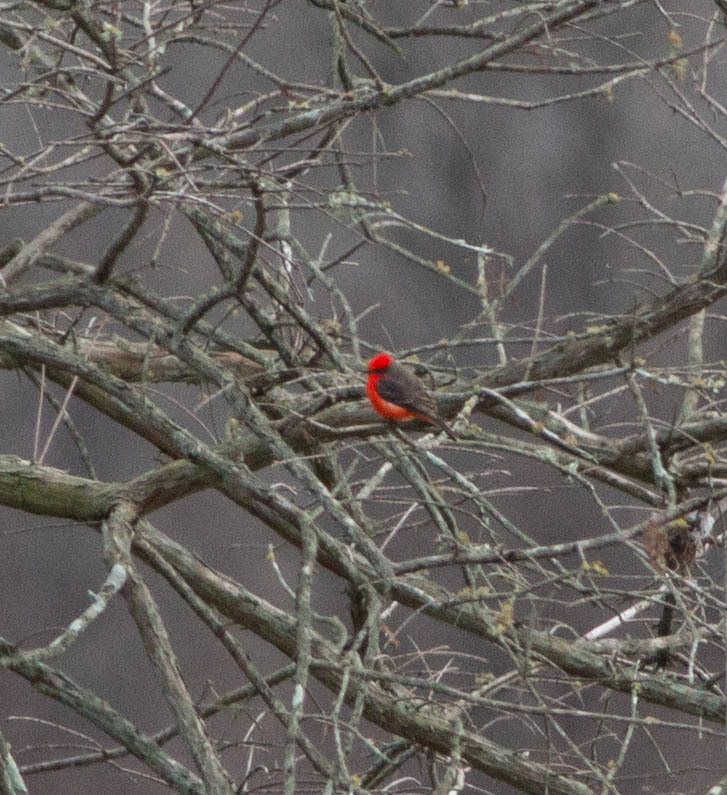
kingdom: Animalia
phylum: Chordata
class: Aves
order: Passeriformes
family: Tyrannidae
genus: Pyrocephalus
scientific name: Pyrocephalus rubinus
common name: Vermilion flycatcher
